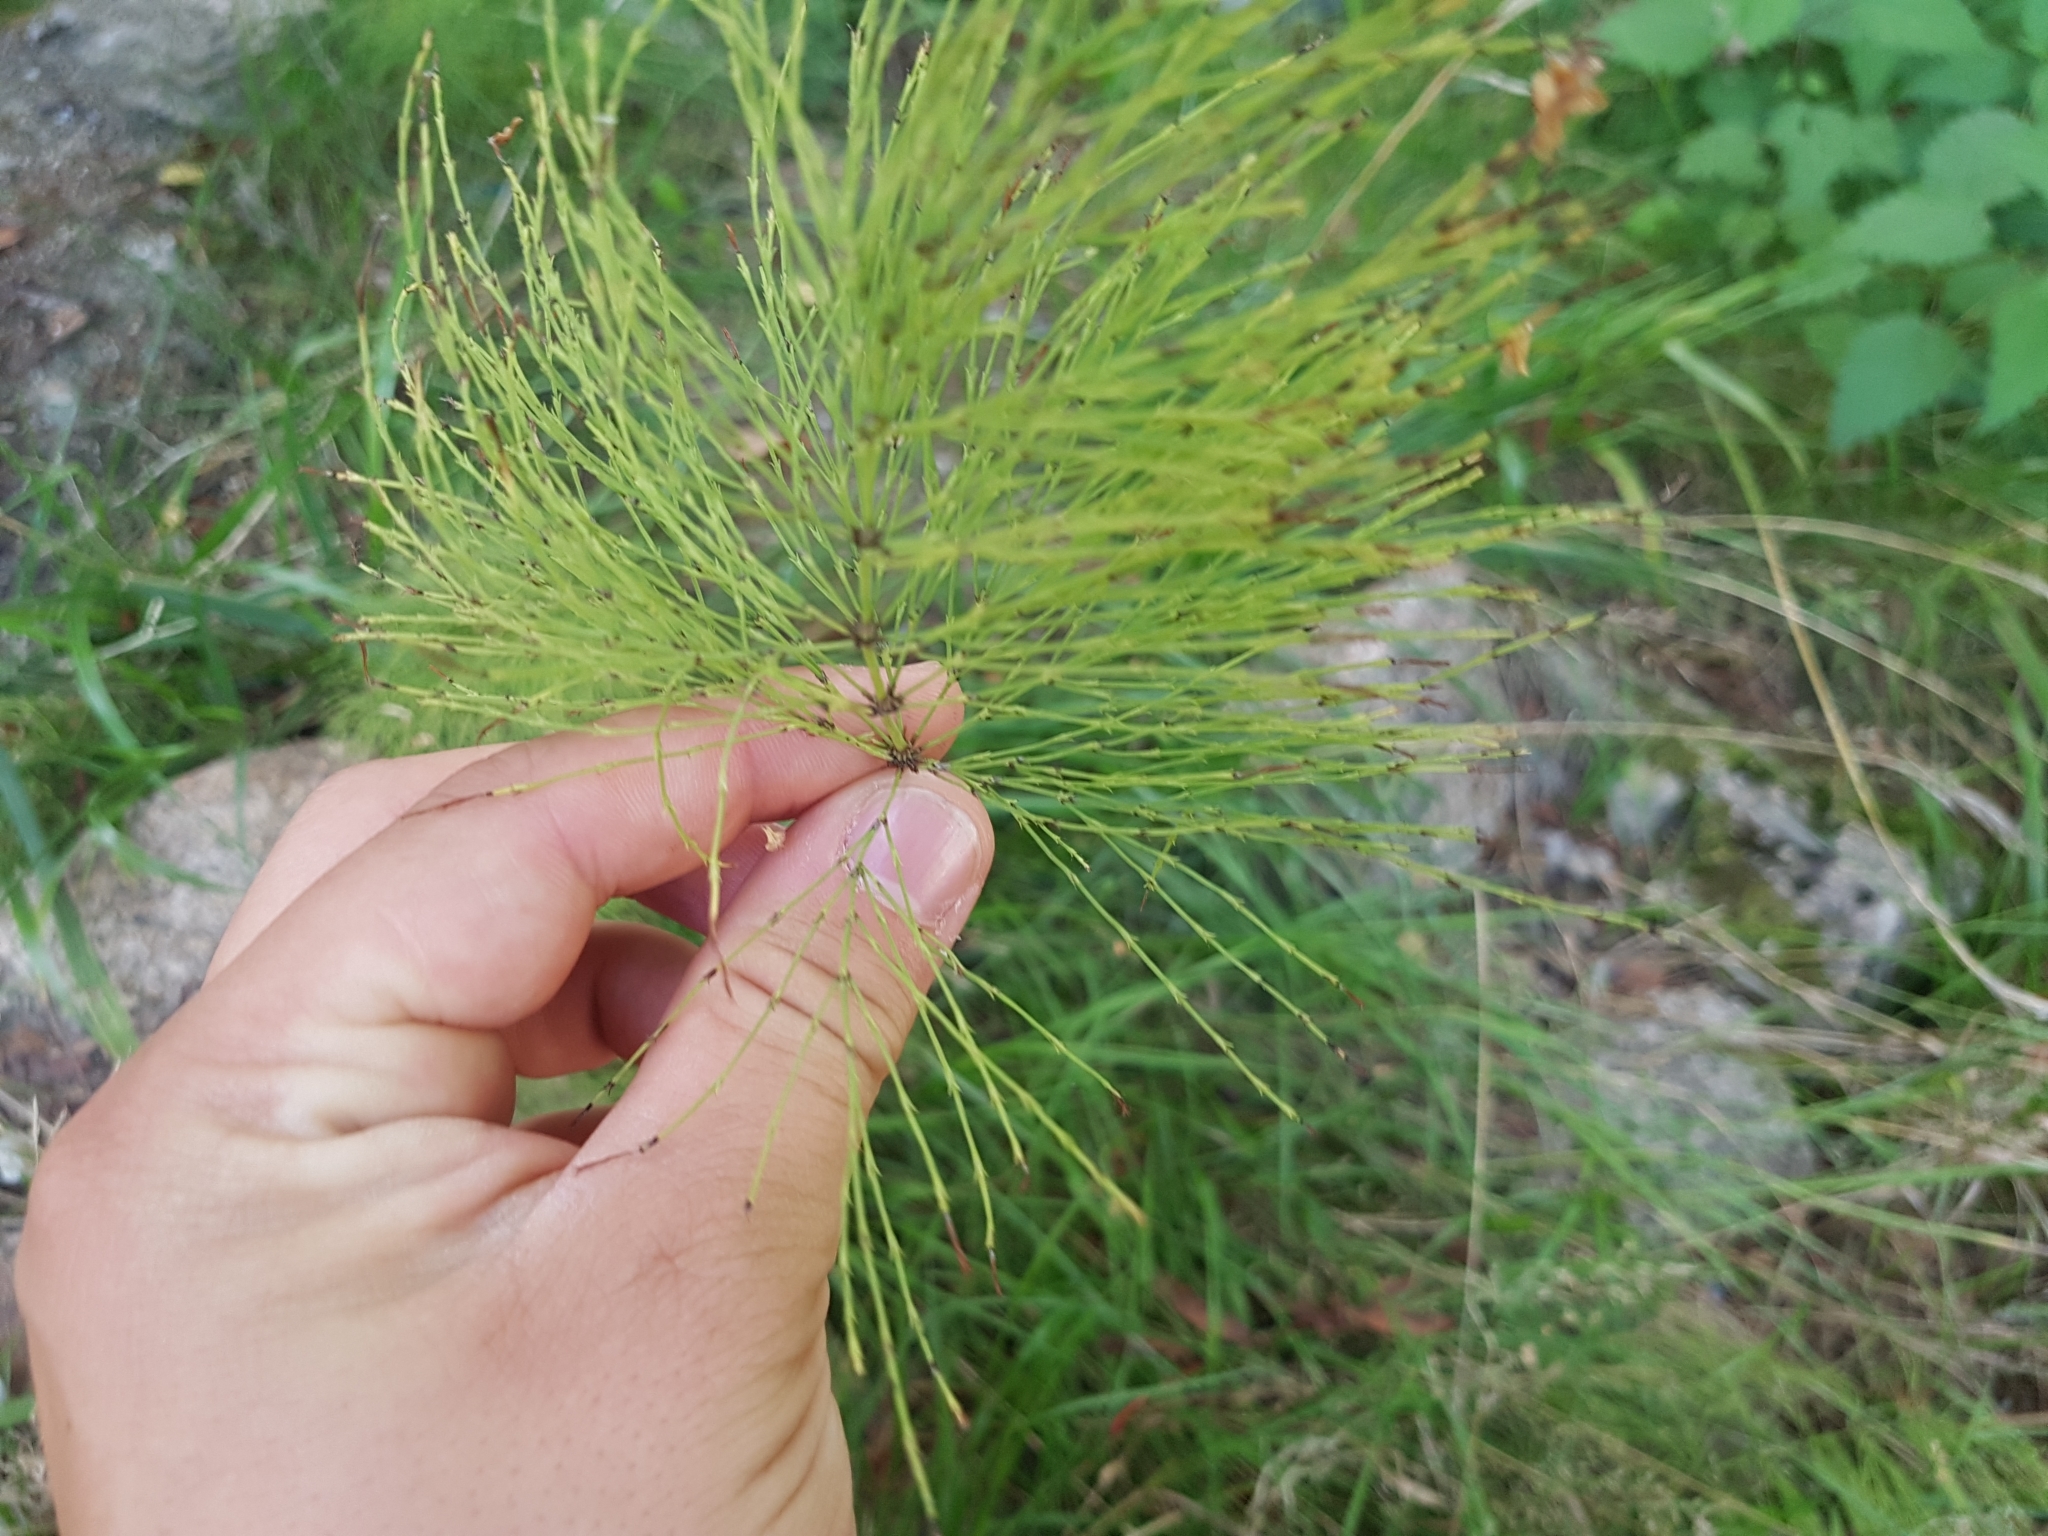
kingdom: Plantae
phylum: Tracheophyta
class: Polypodiopsida
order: Equisetales
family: Equisetaceae
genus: Equisetum
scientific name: Equisetum sylvaticum
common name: Wood horsetail
